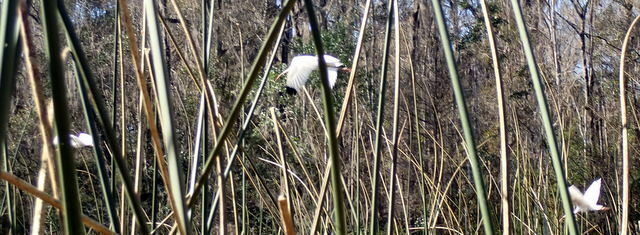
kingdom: Animalia
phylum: Chordata
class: Aves
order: Pelecaniformes
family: Threskiornithidae
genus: Eudocimus
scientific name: Eudocimus albus
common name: White ibis
